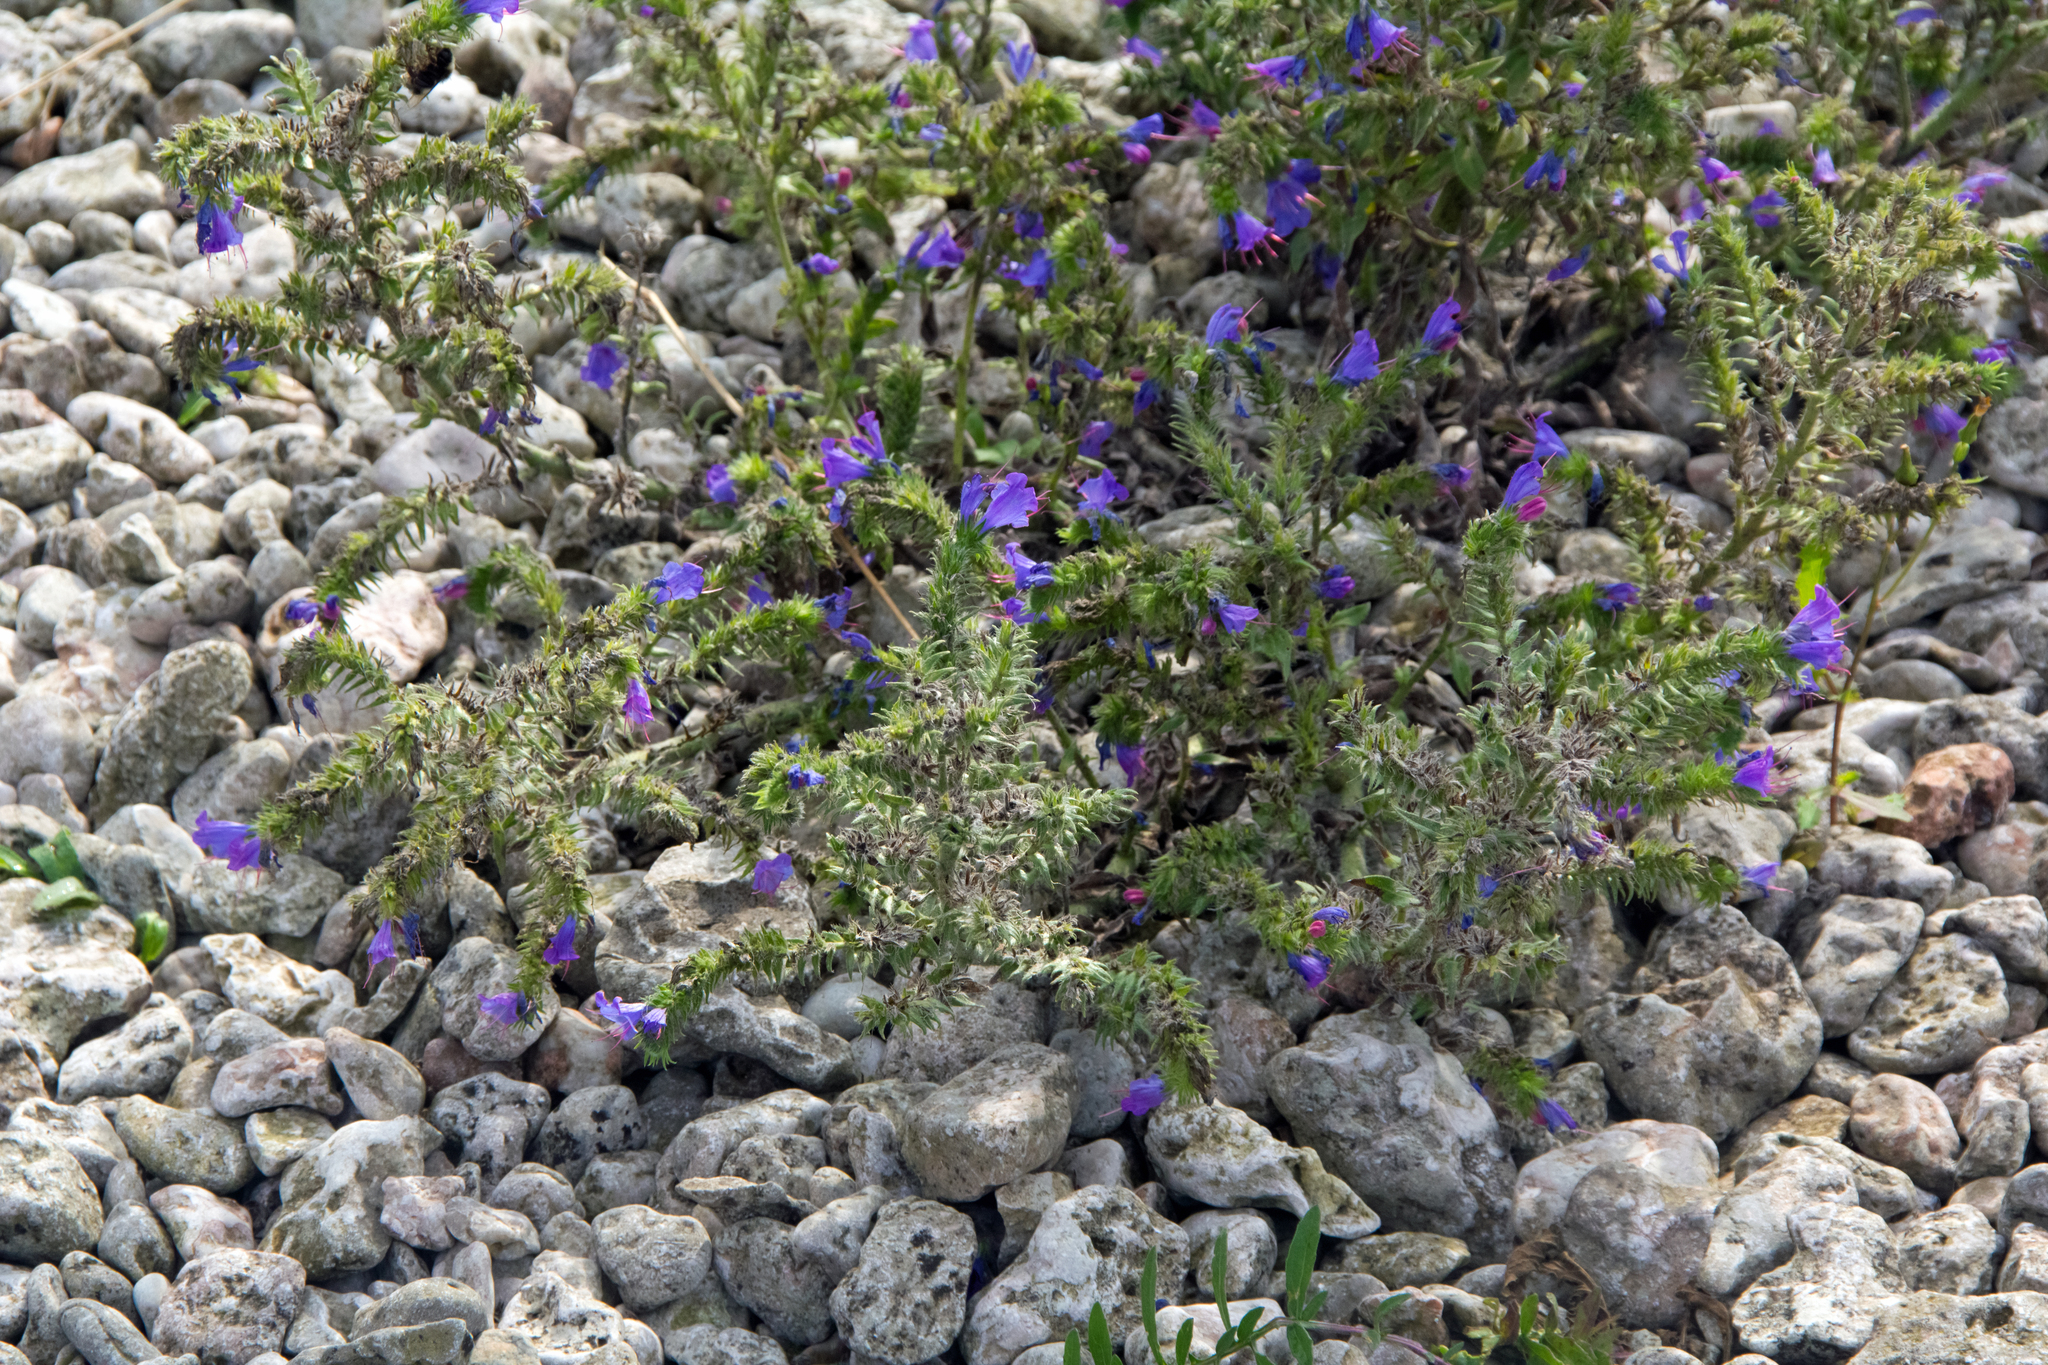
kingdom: Plantae
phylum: Tracheophyta
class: Magnoliopsida
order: Boraginales
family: Boraginaceae
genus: Echium
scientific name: Echium vulgare
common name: Common viper's bugloss
